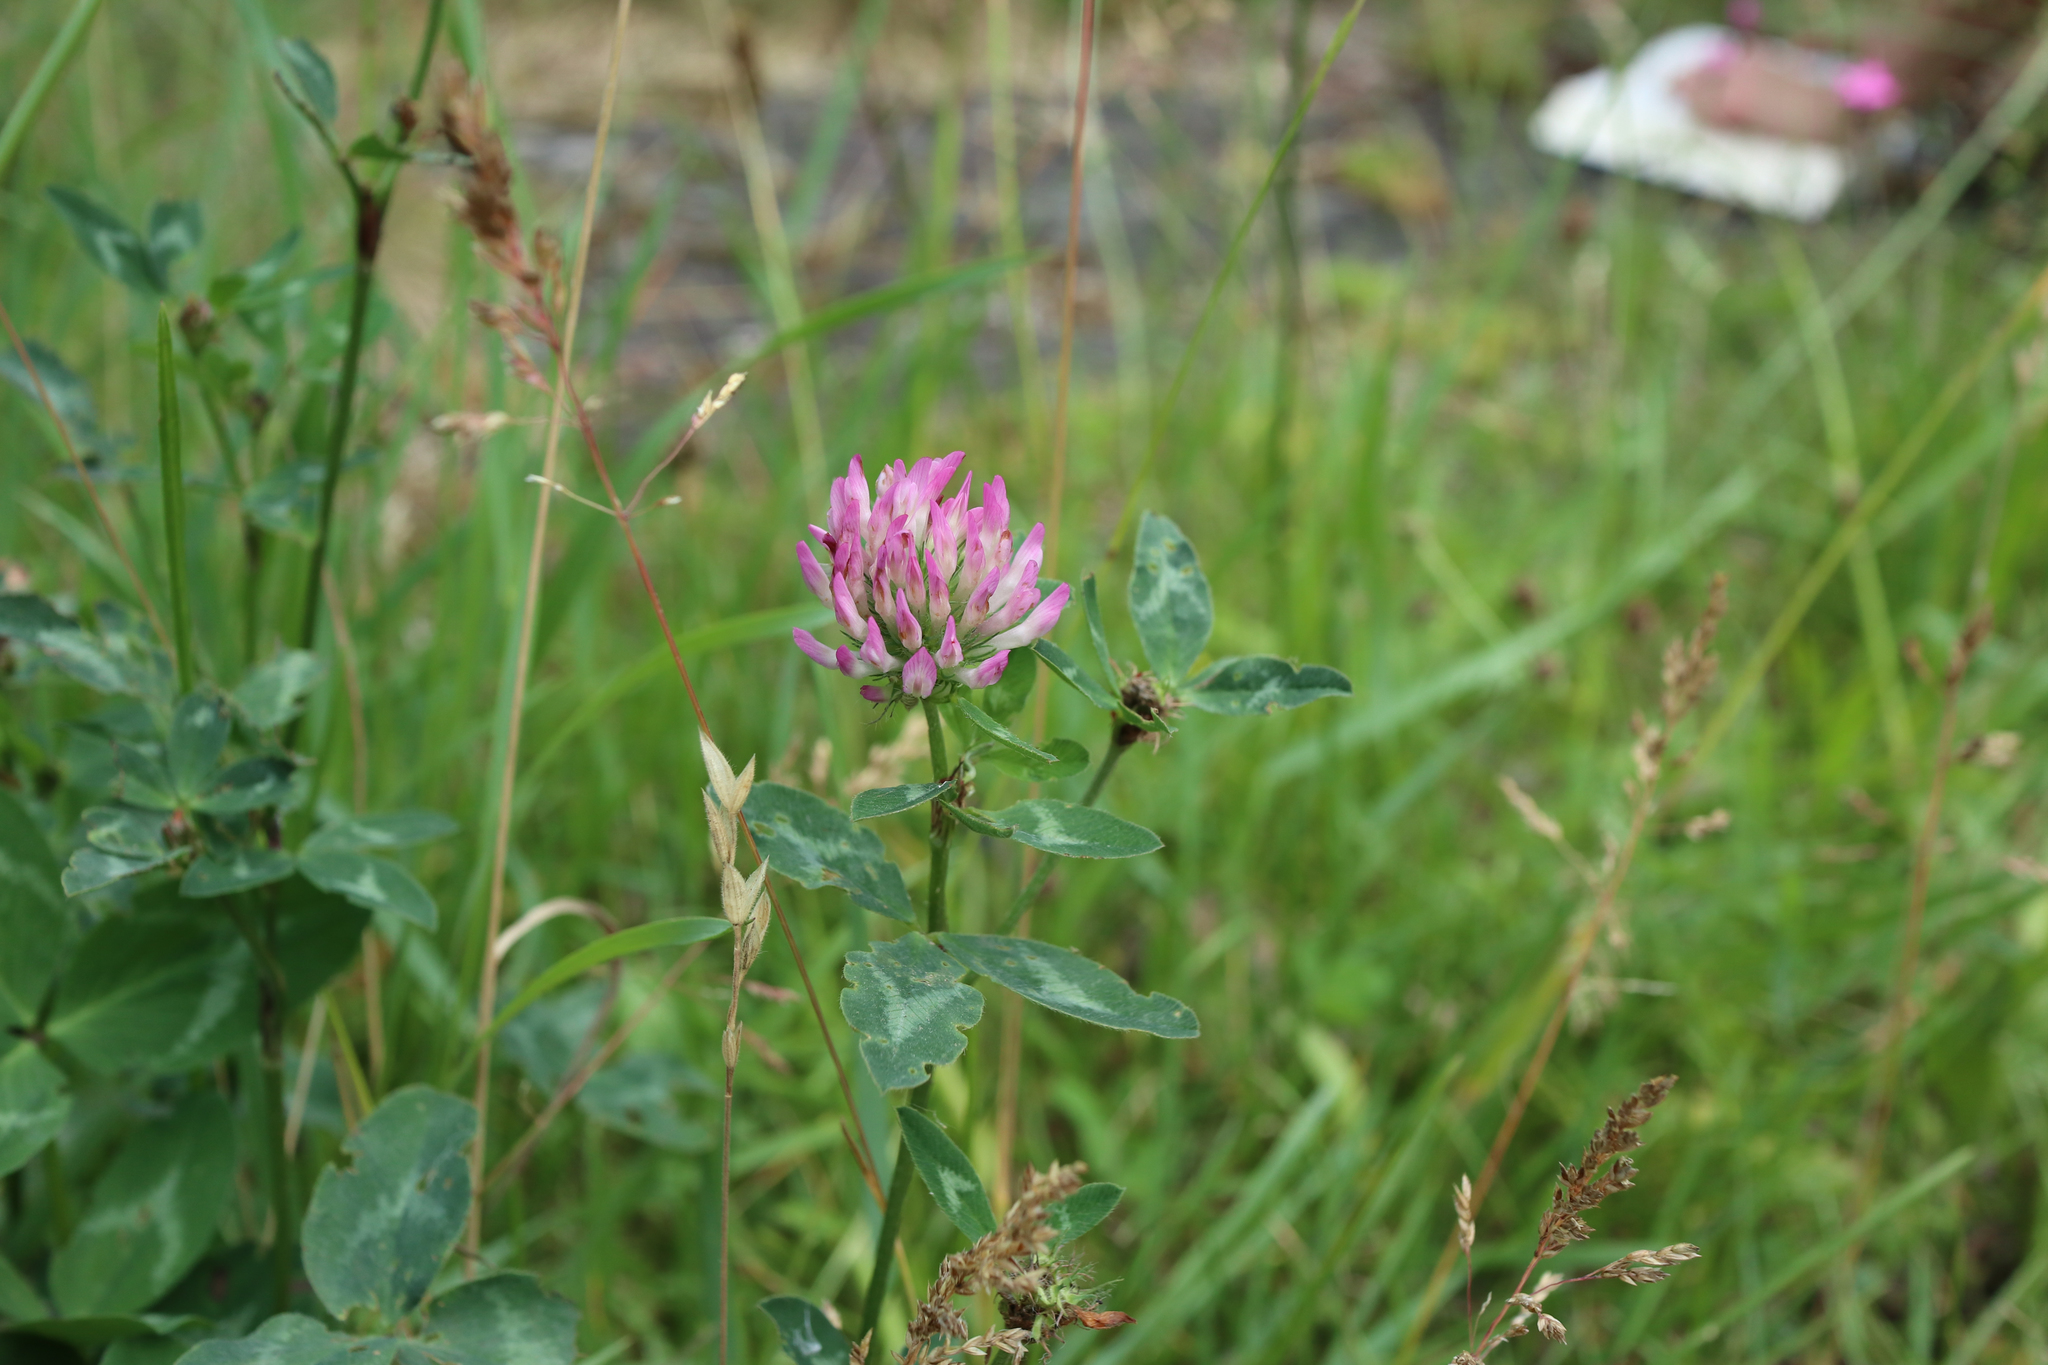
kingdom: Plantae
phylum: Tracheophyta
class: Magnoliopsida
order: Fabales
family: Fabaceae
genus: Trifolium
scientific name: Trifolium pratense
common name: Red clover
